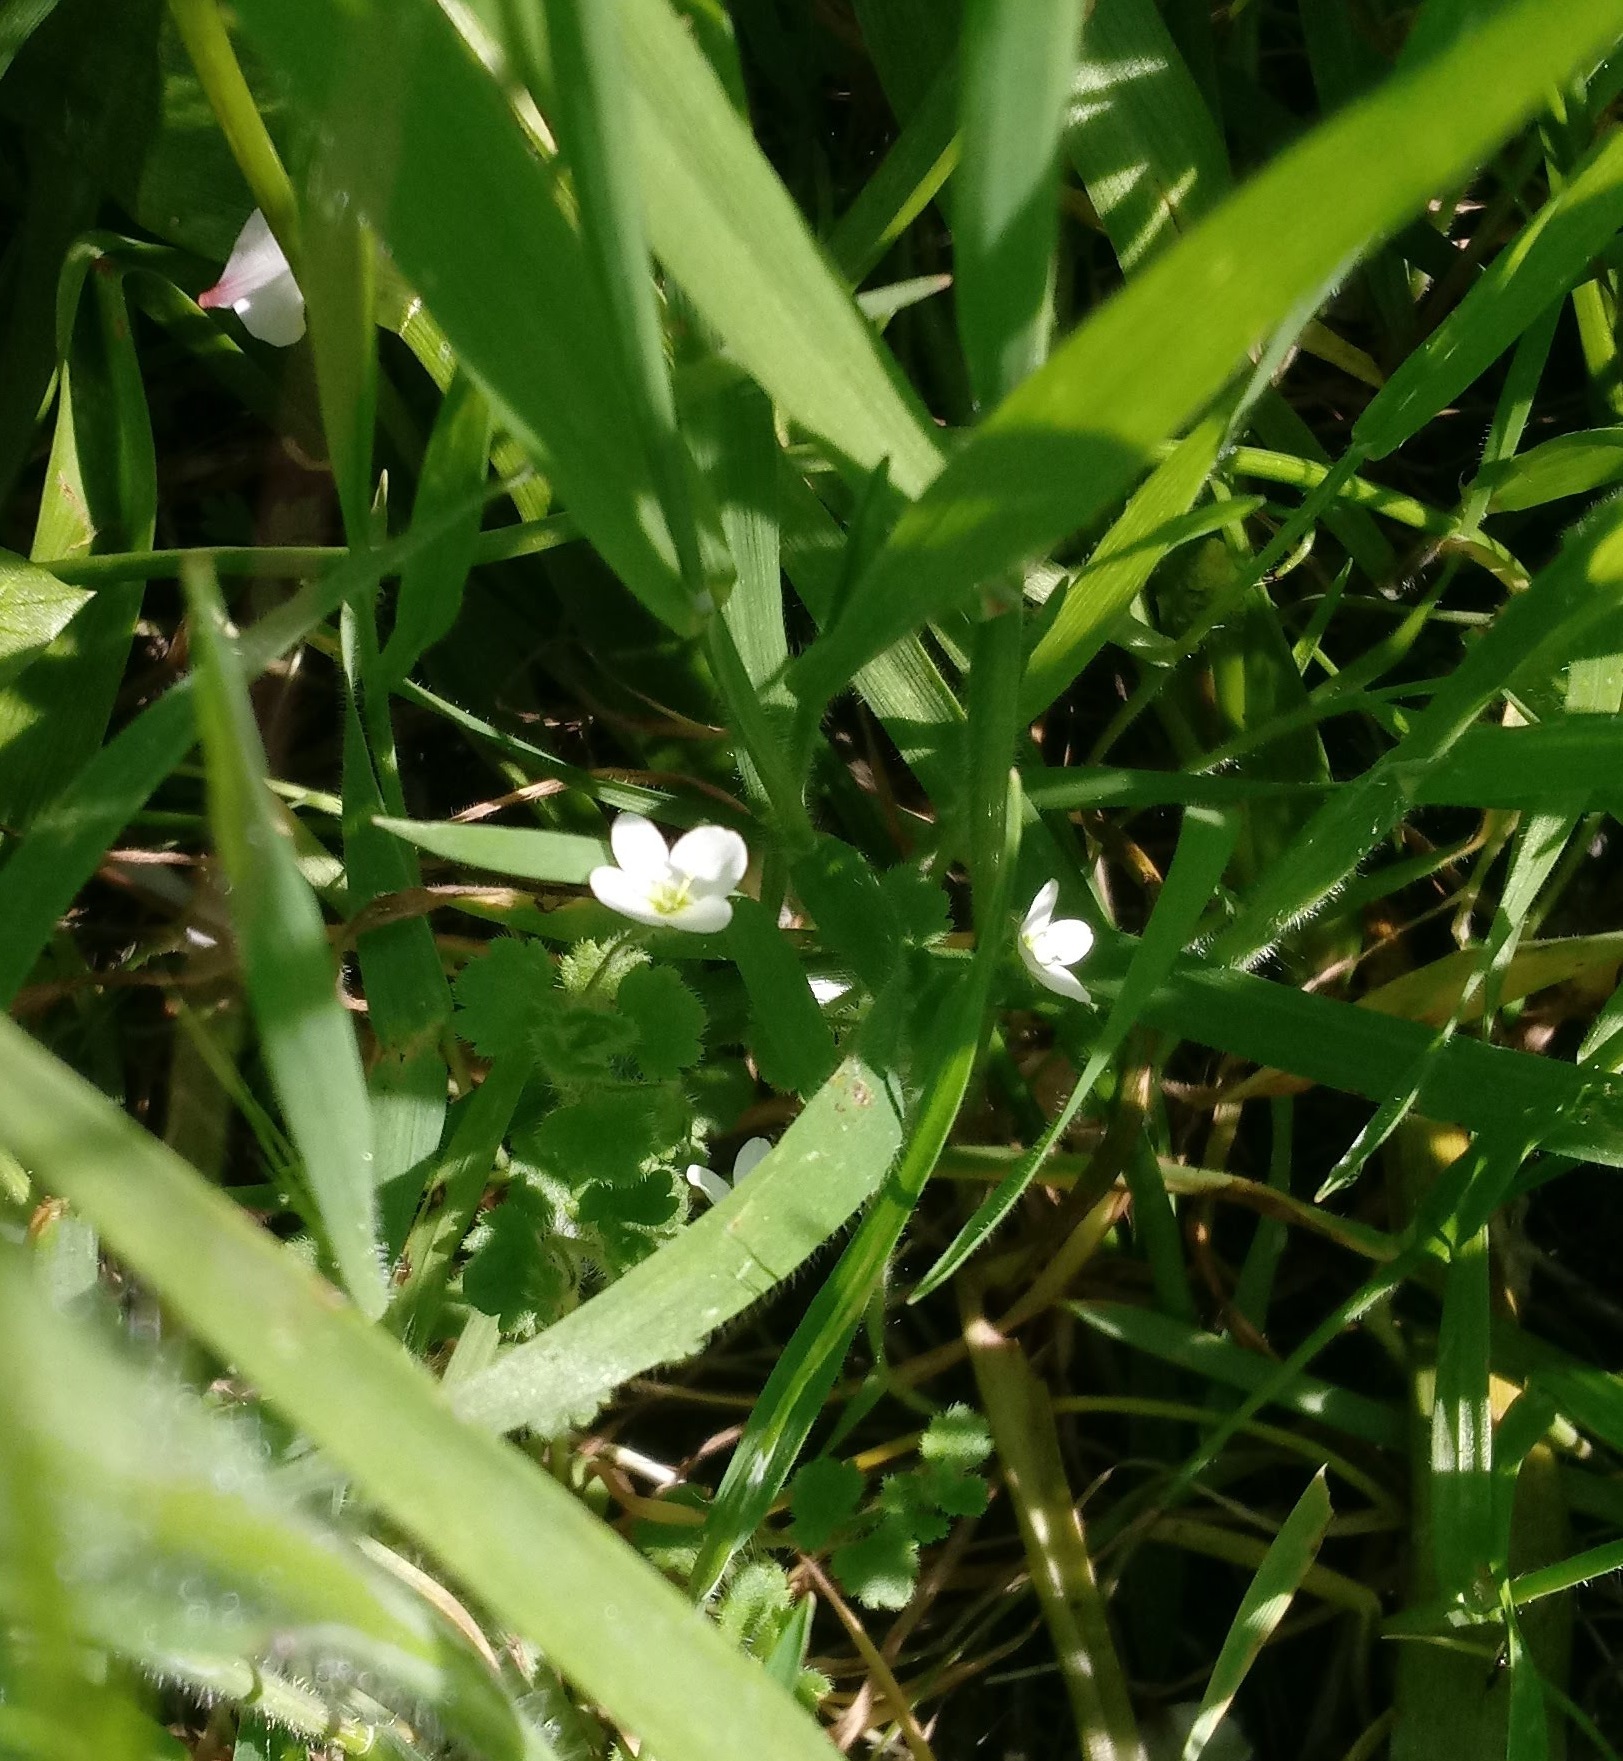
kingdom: Plantae
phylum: Tracheophyta
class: Magnoliopsida
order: Lamiales
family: Plantaginaceae
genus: Veronica
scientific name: Veronica cymbalaria
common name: Pale speedwell
